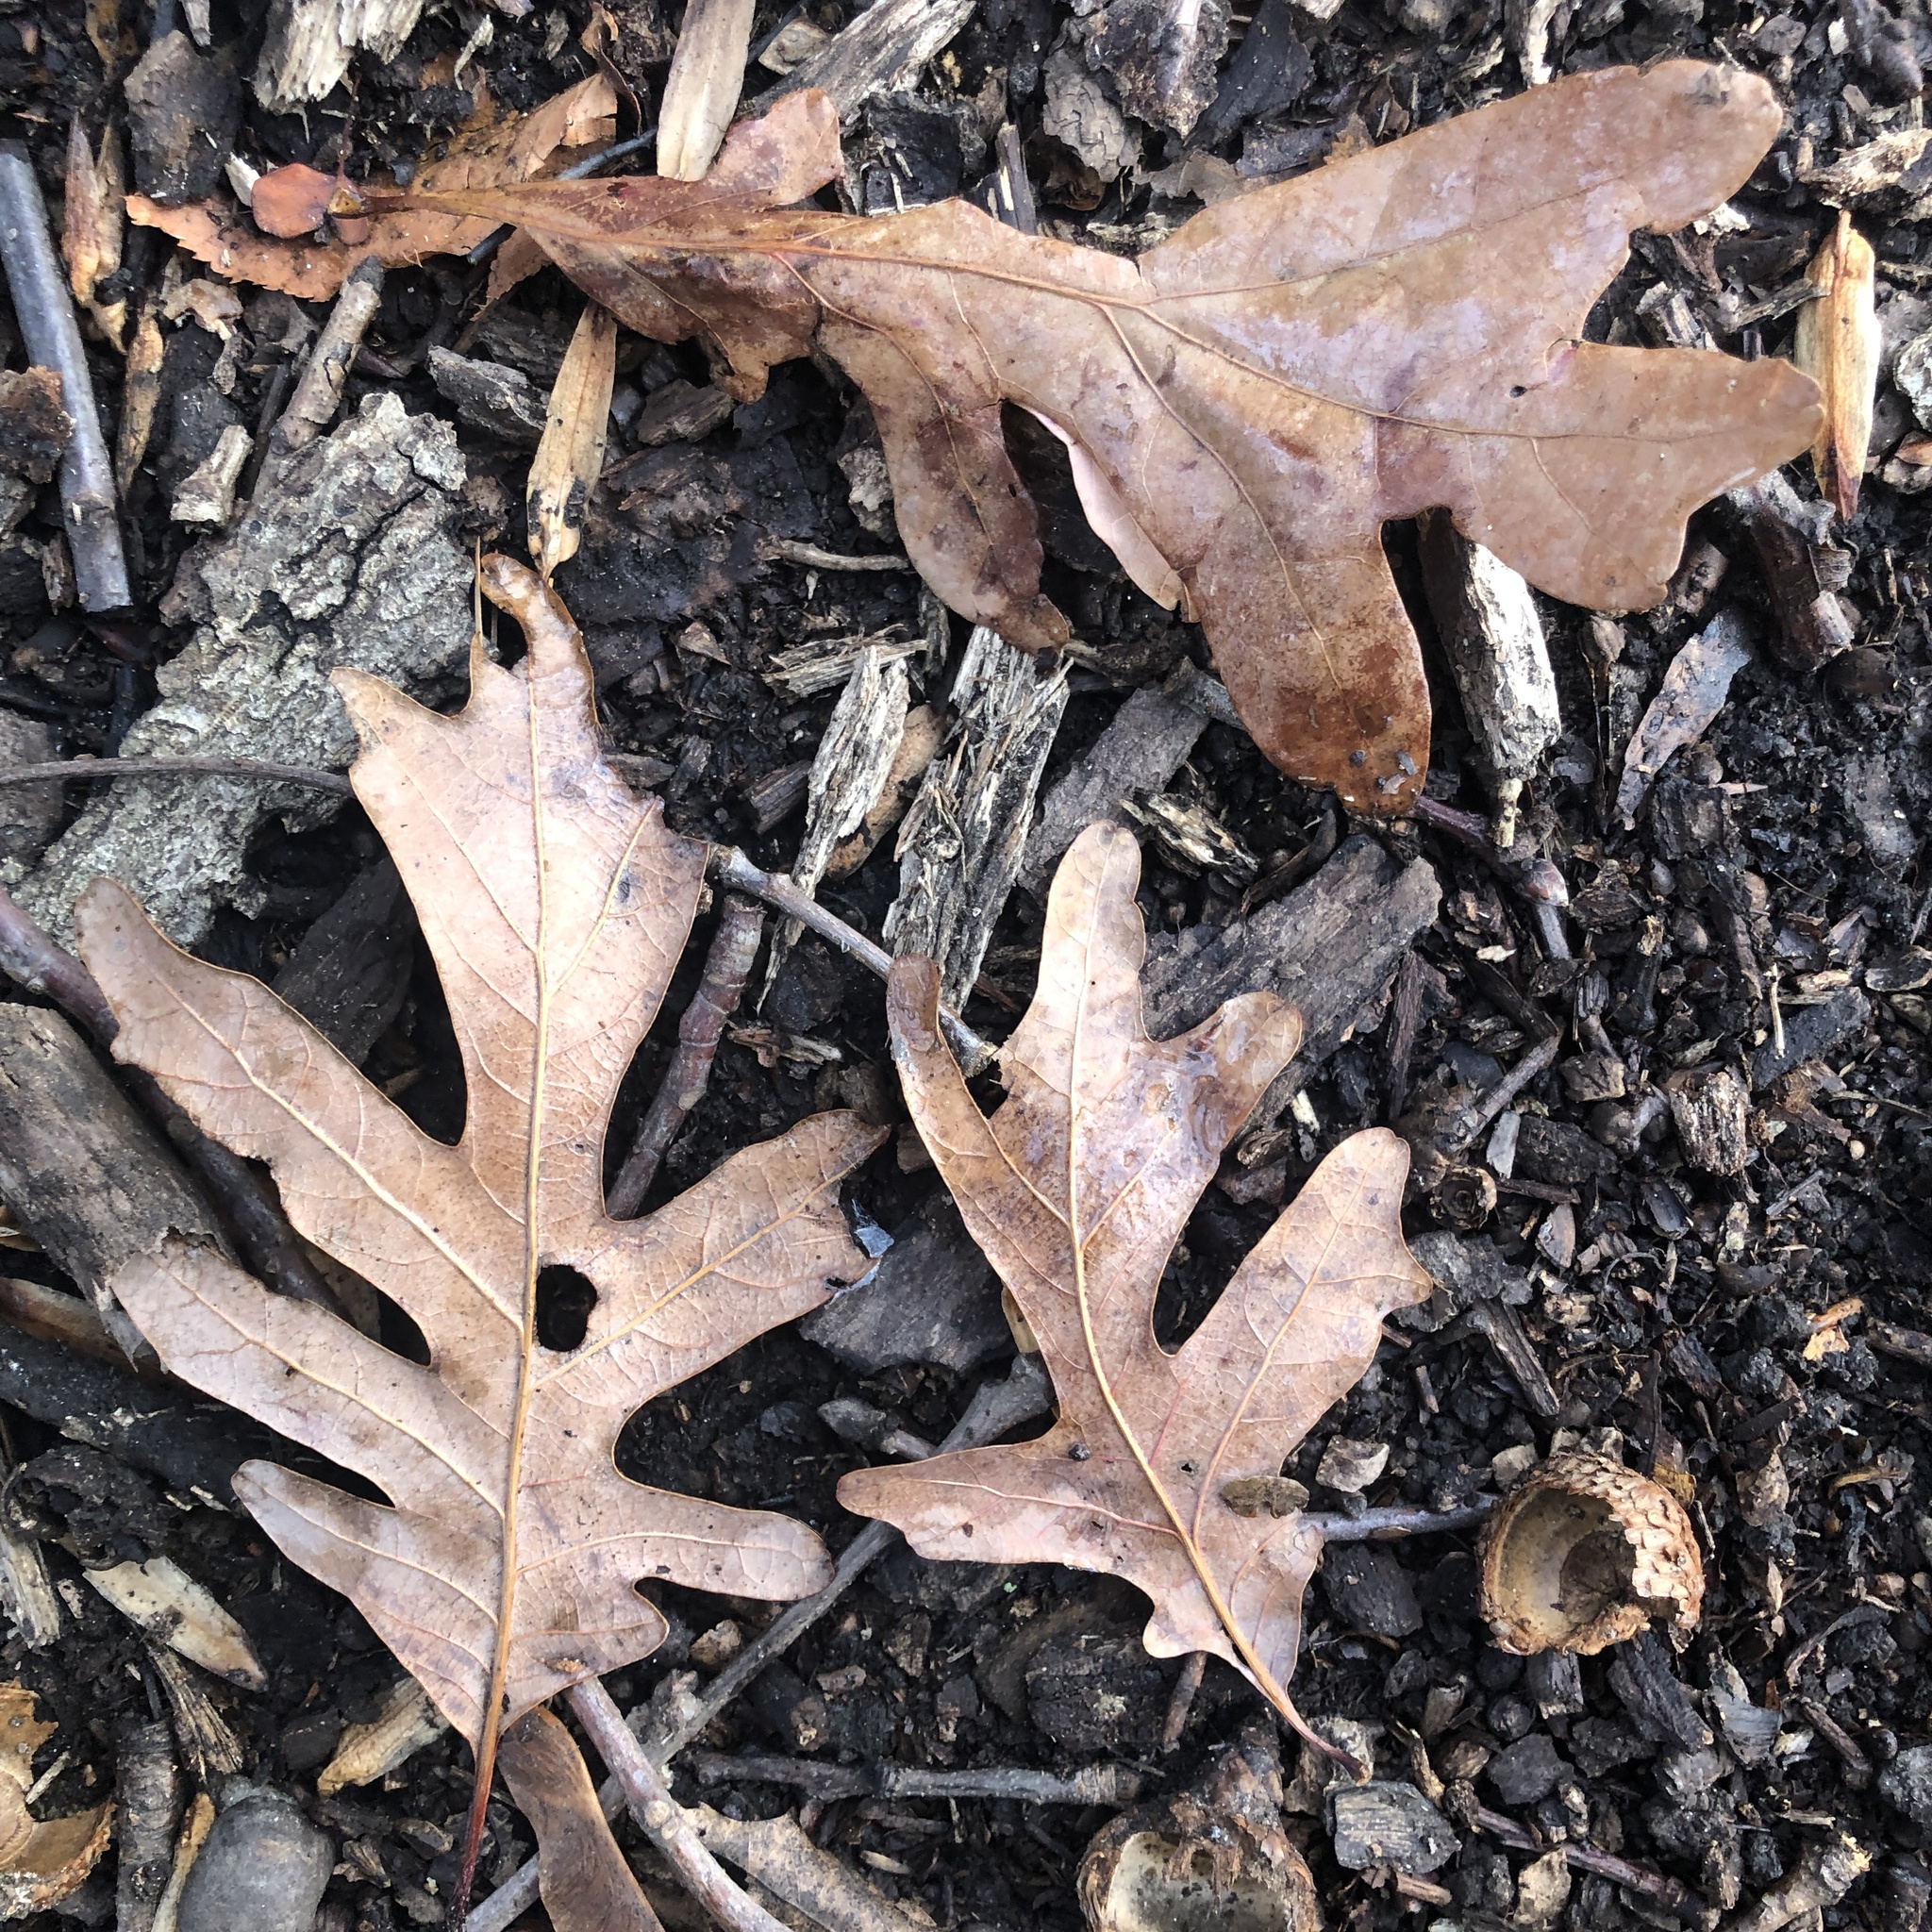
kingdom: Plantae
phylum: Tracheophyta
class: Magnoliopsida
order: Fagales
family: Fagaceae
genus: Quercus
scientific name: Quercus alba
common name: White oak
